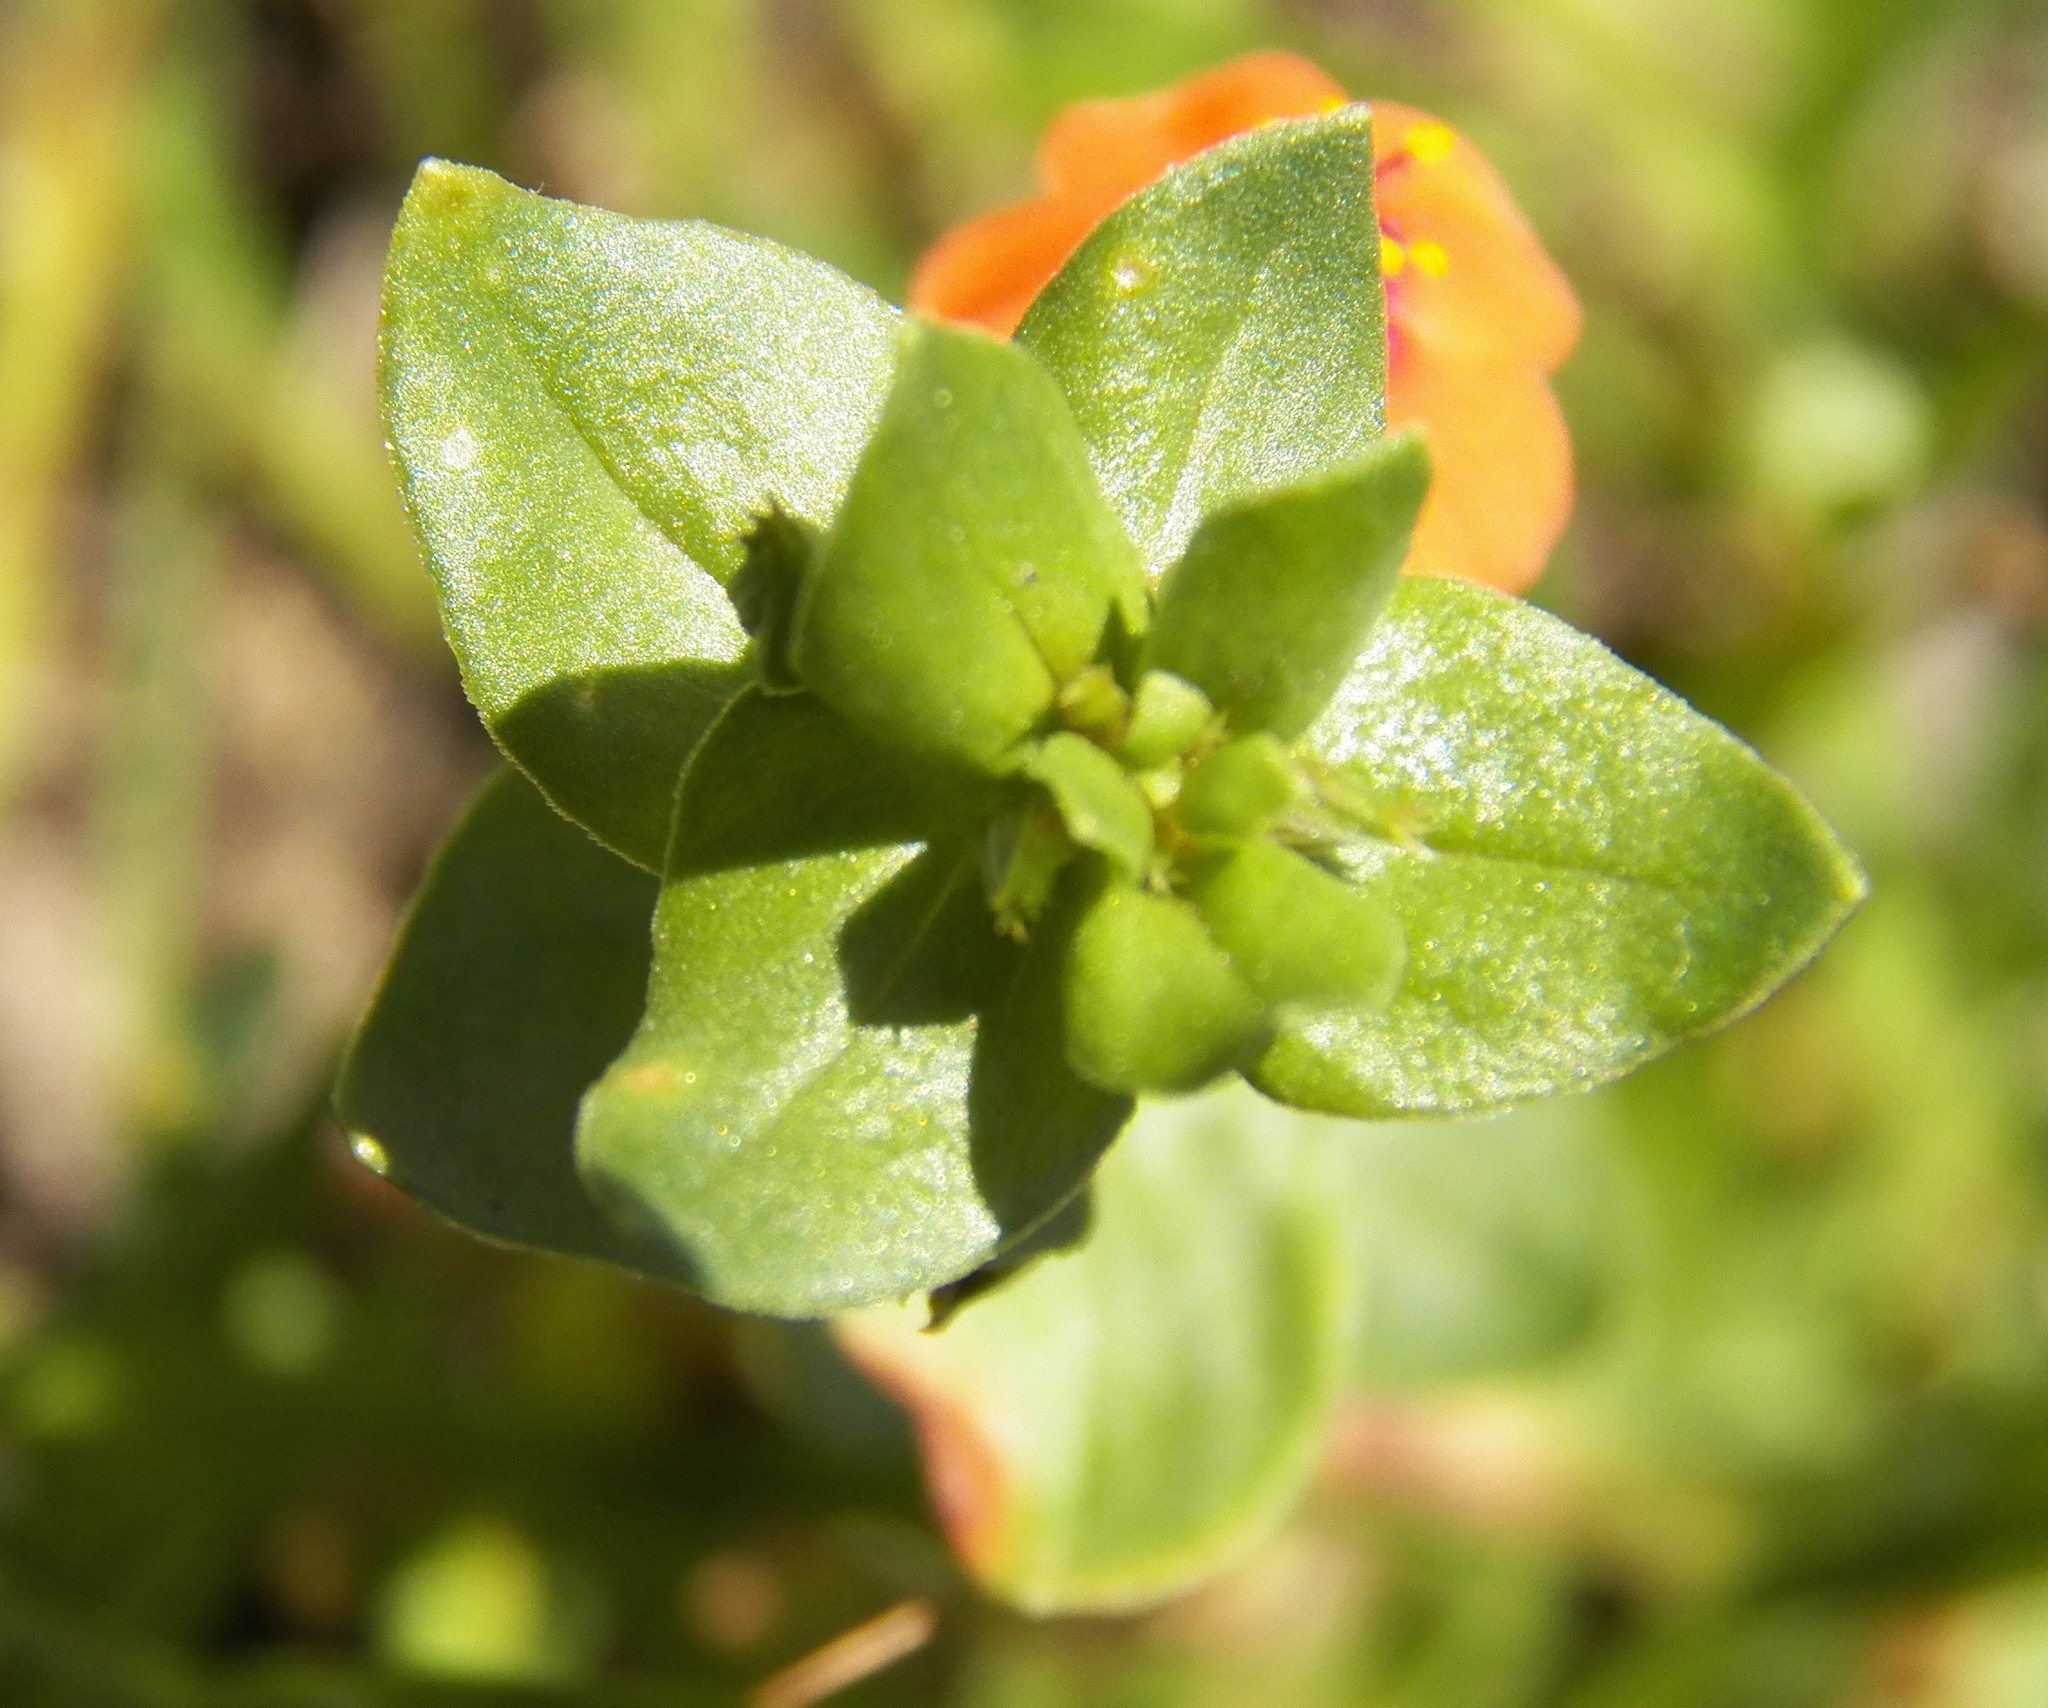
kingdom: Plantae
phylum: Tracheophyta
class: Magnoliopsida
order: Ericales
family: Primulaceae
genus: Lysimachia
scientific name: Lysimachia arvensis
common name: Scarlet pimpernel
